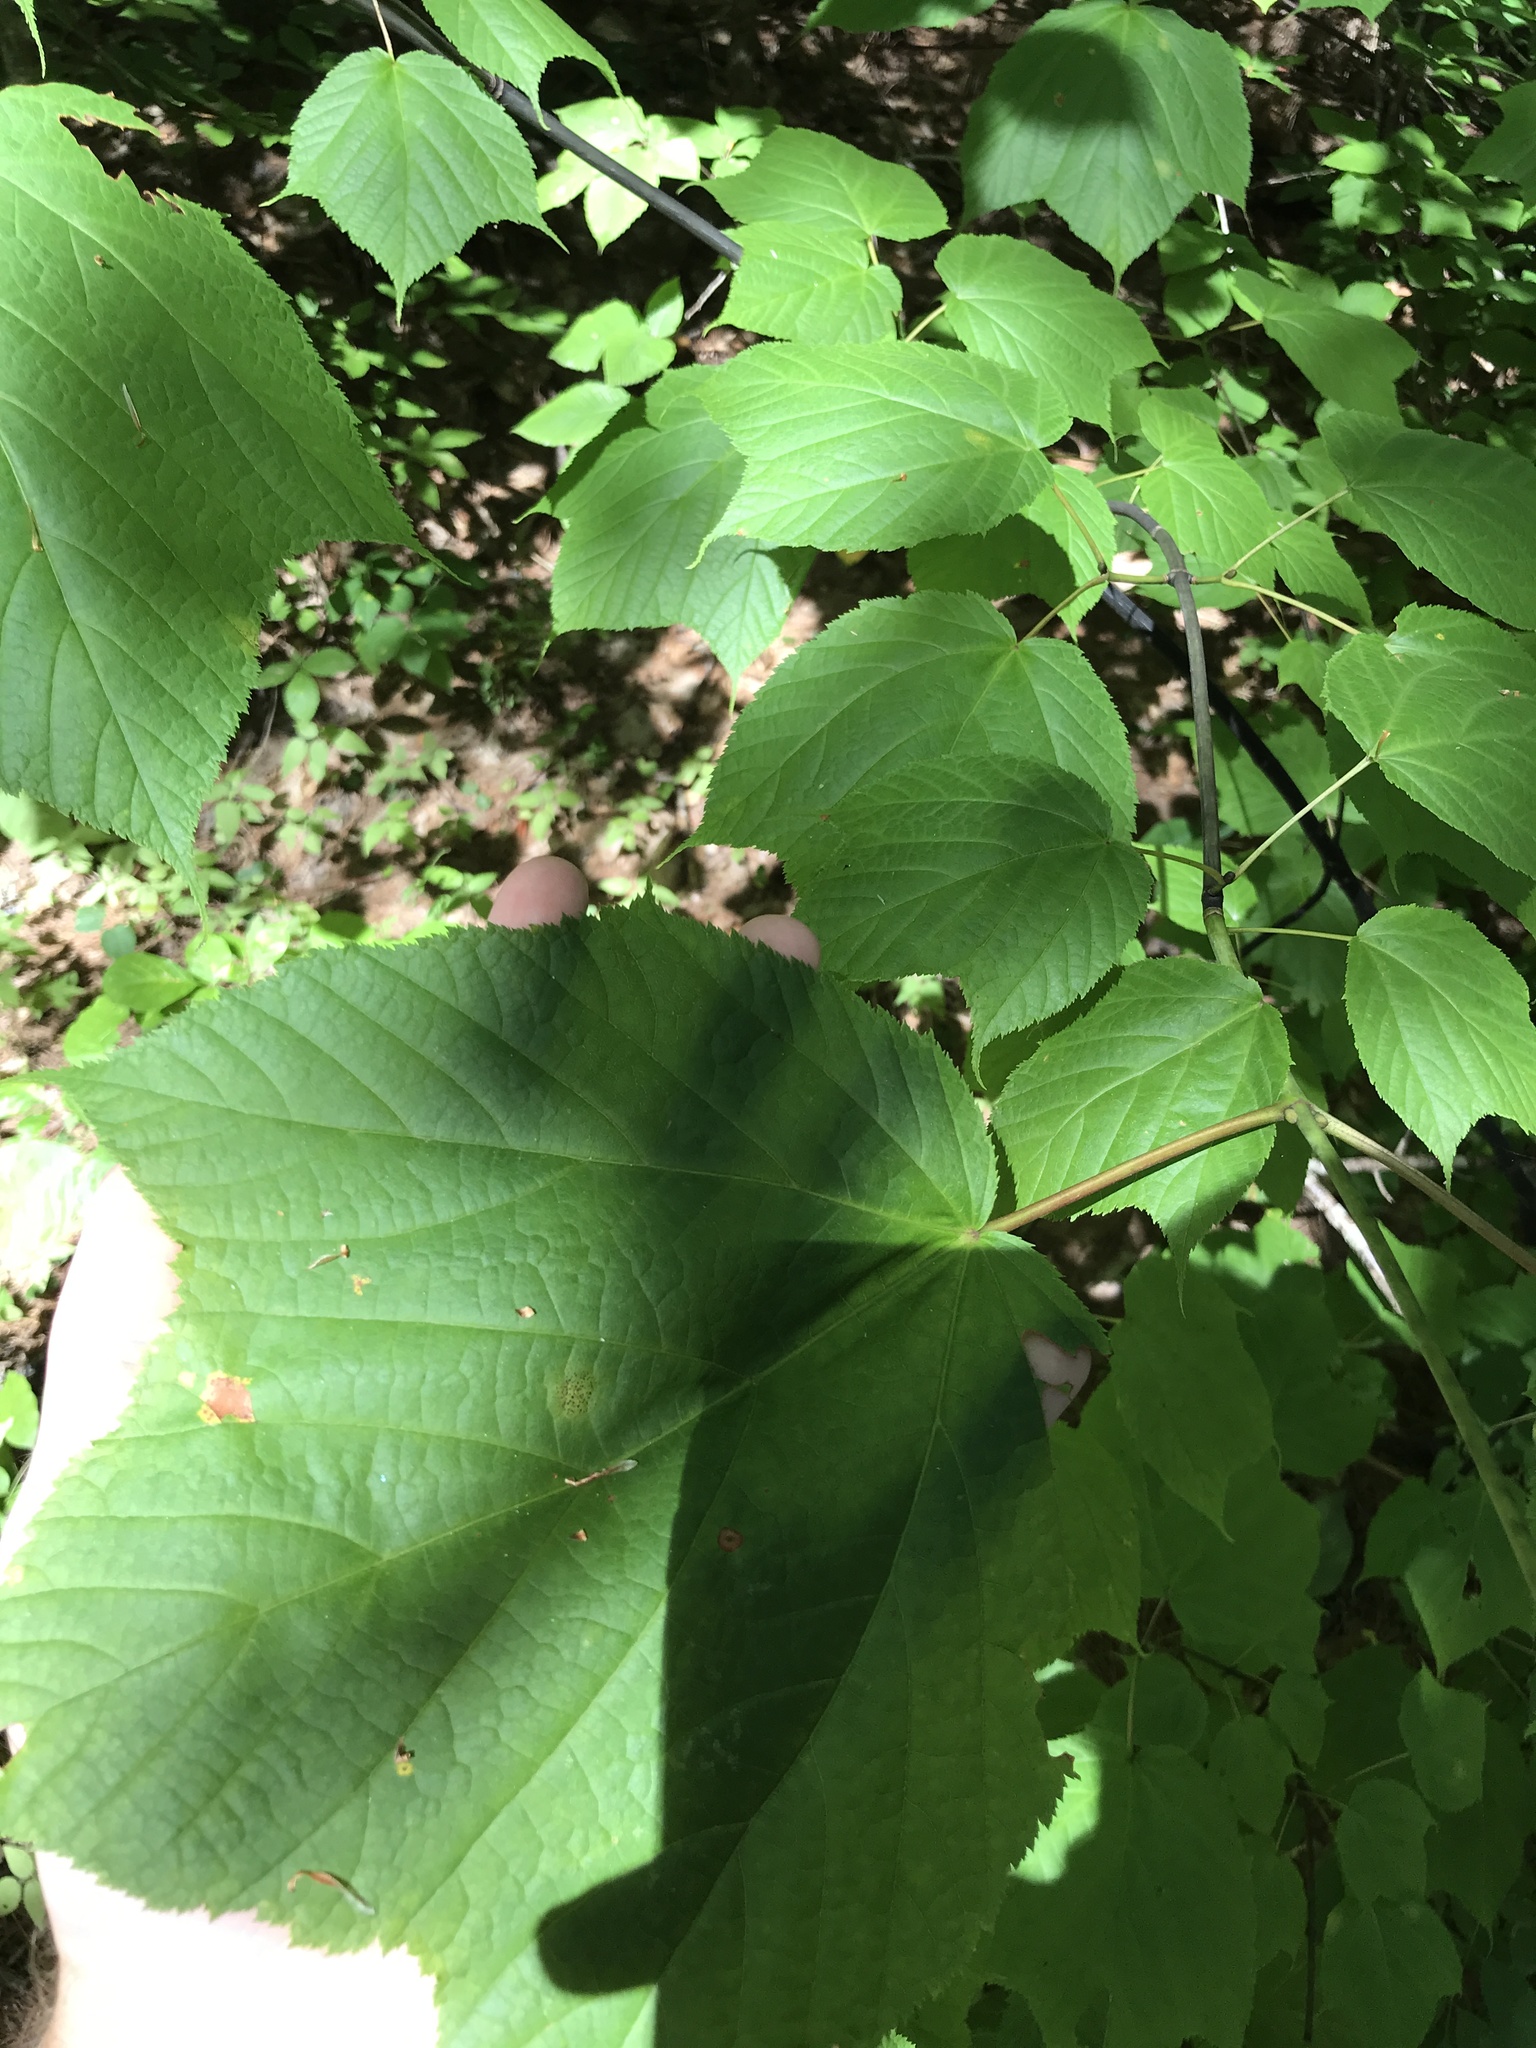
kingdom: Plantae
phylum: Tracheophyta
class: Magnoliopsida
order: Sapindales
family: Sapindaceae
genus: Acer
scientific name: Acer pensylvanicum
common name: Moosewood
